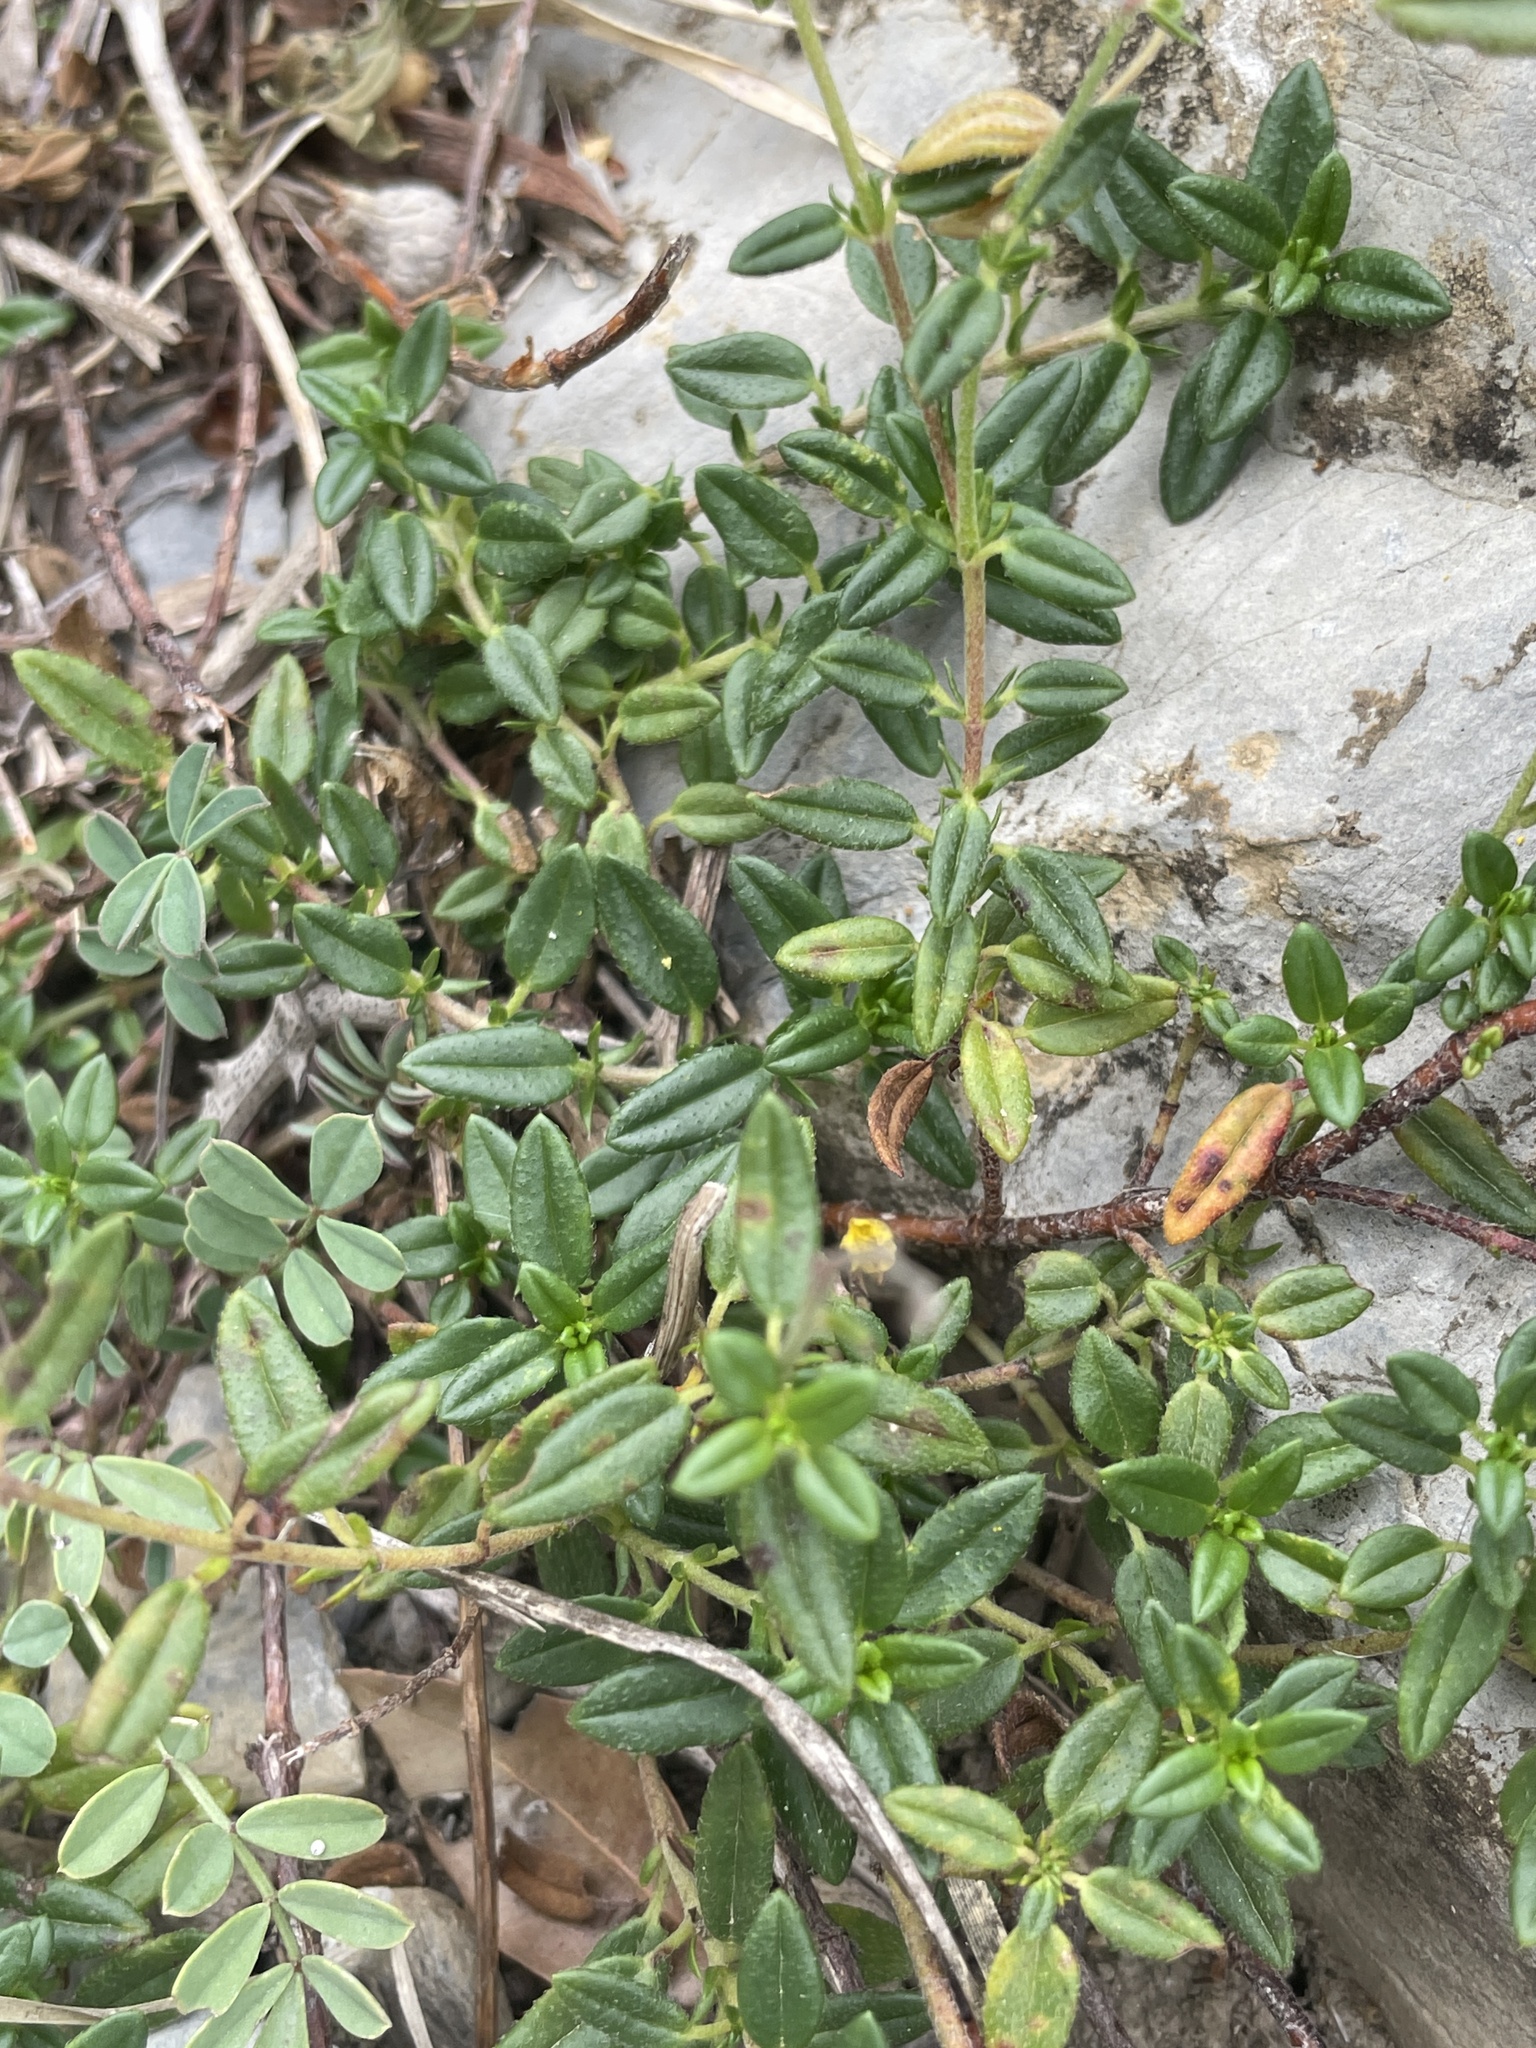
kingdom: Plantae
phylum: Tracheophyta
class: Magnoliopsida
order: Malvales
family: Cistaceae
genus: Helianthemum
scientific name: Helianthemum nummularium
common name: Common rock-rose
